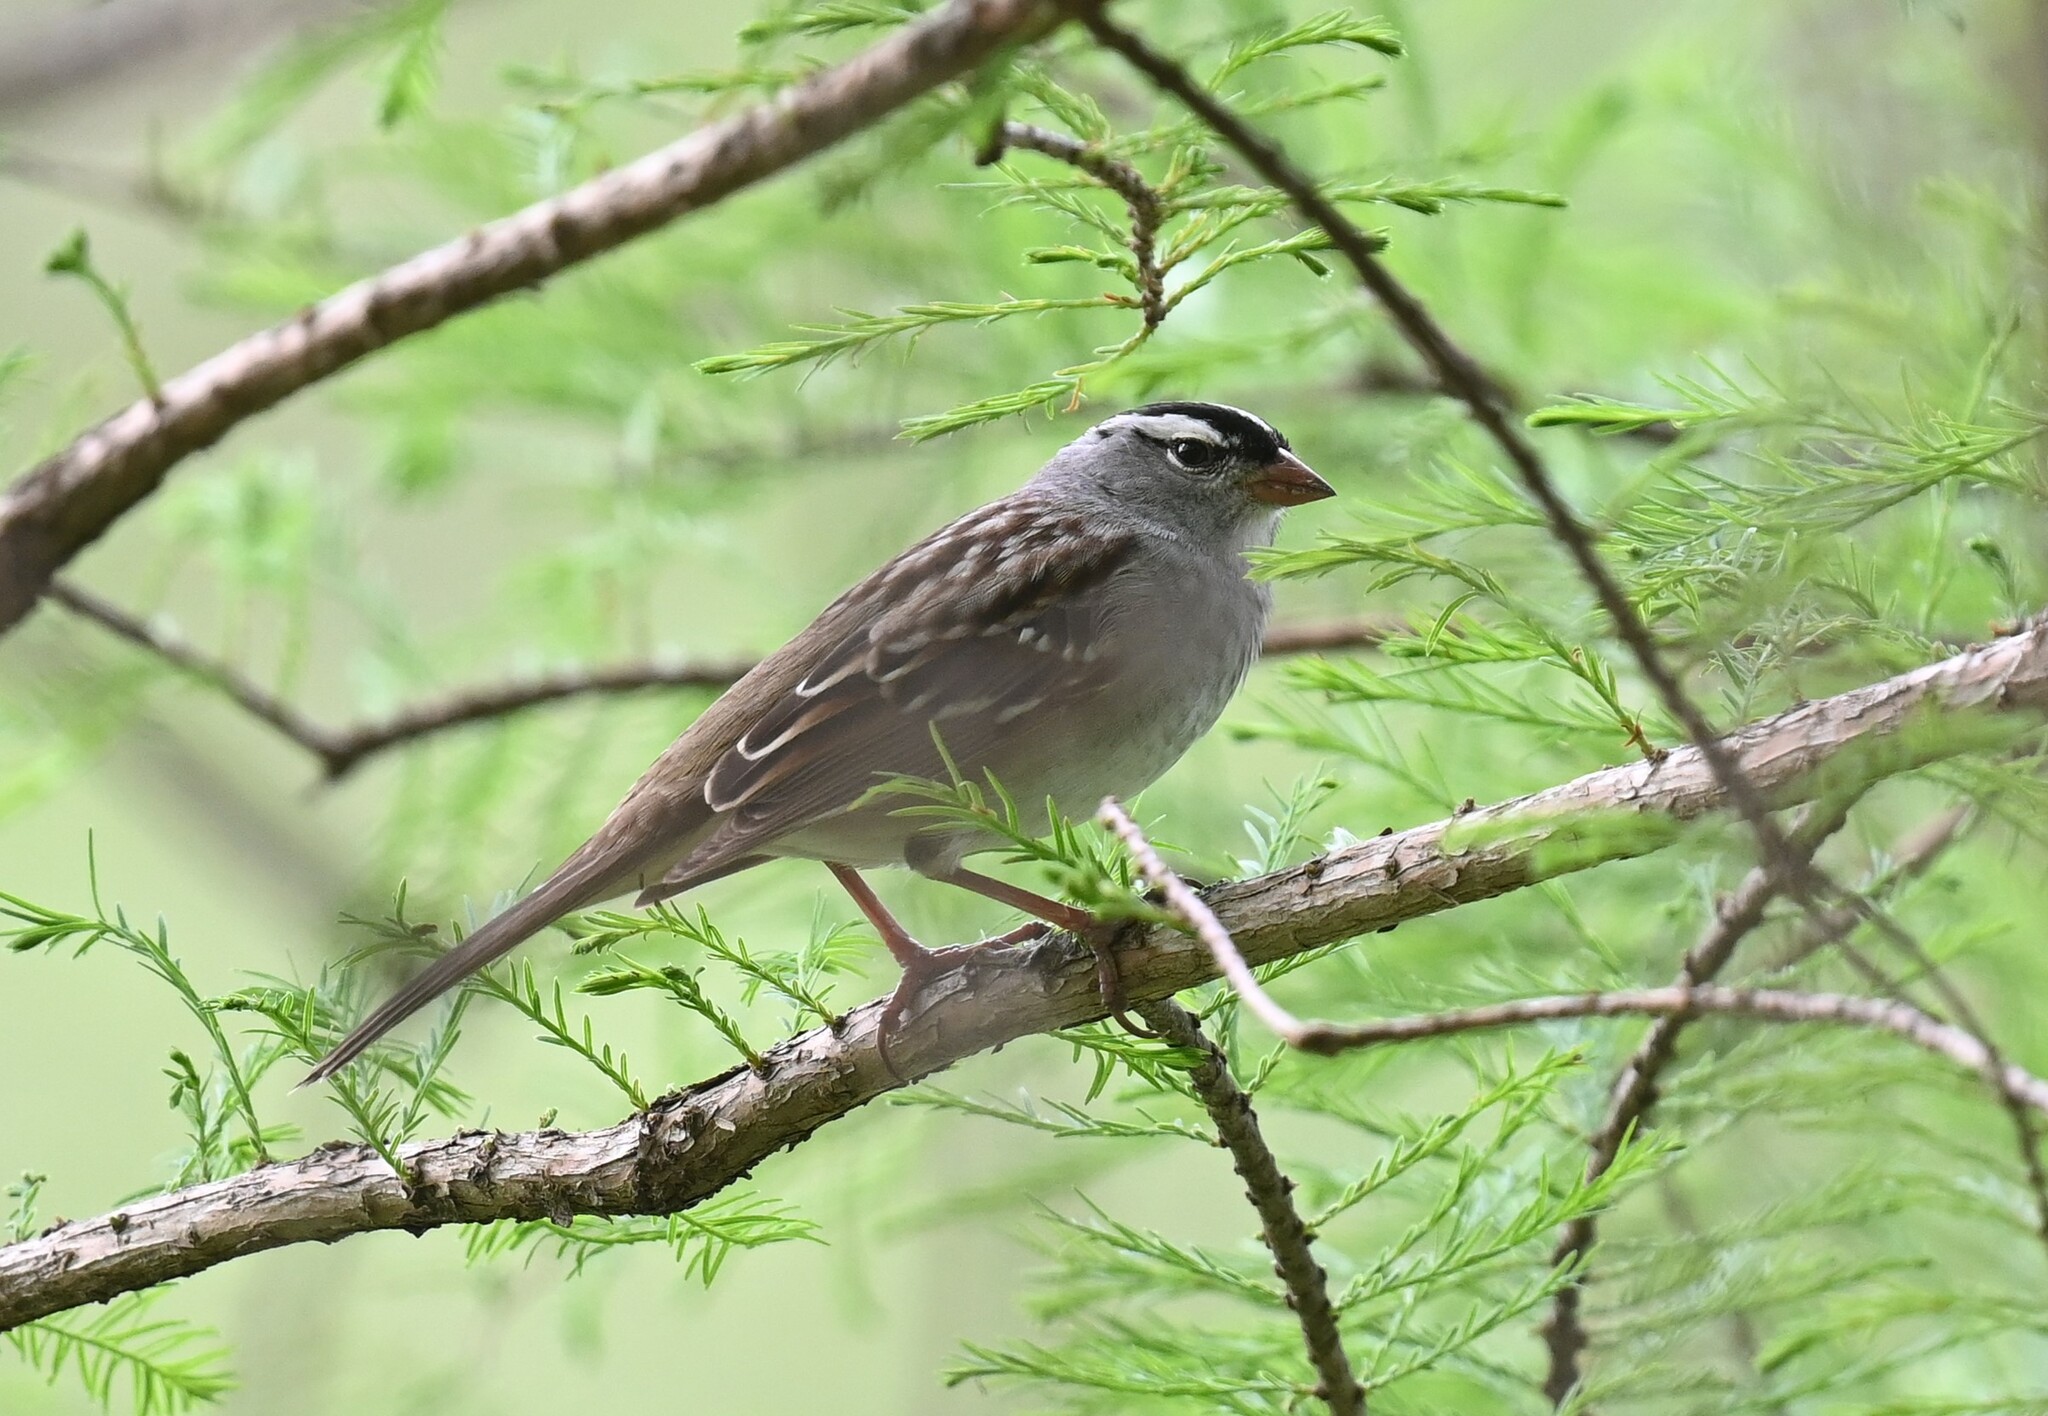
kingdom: Animalia
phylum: Chordata
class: Aves
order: Passeriformes
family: Passerellidae
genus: Zonotrichia
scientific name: Zonotrichia leucophrys
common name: White-crowned sparrow
